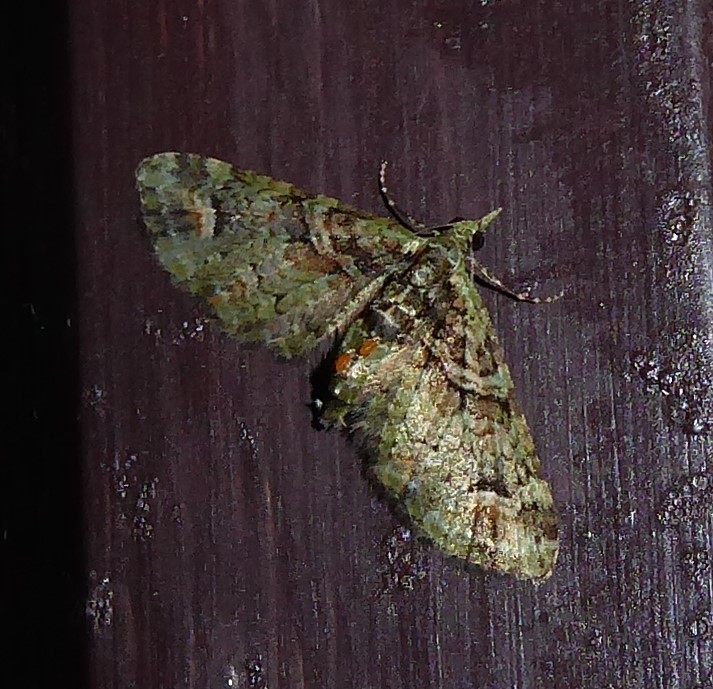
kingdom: Animalia
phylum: Arthropoda
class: Insecta
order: Lepidoptera
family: Geometridae
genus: Idaea
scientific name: Idaea mutanda
